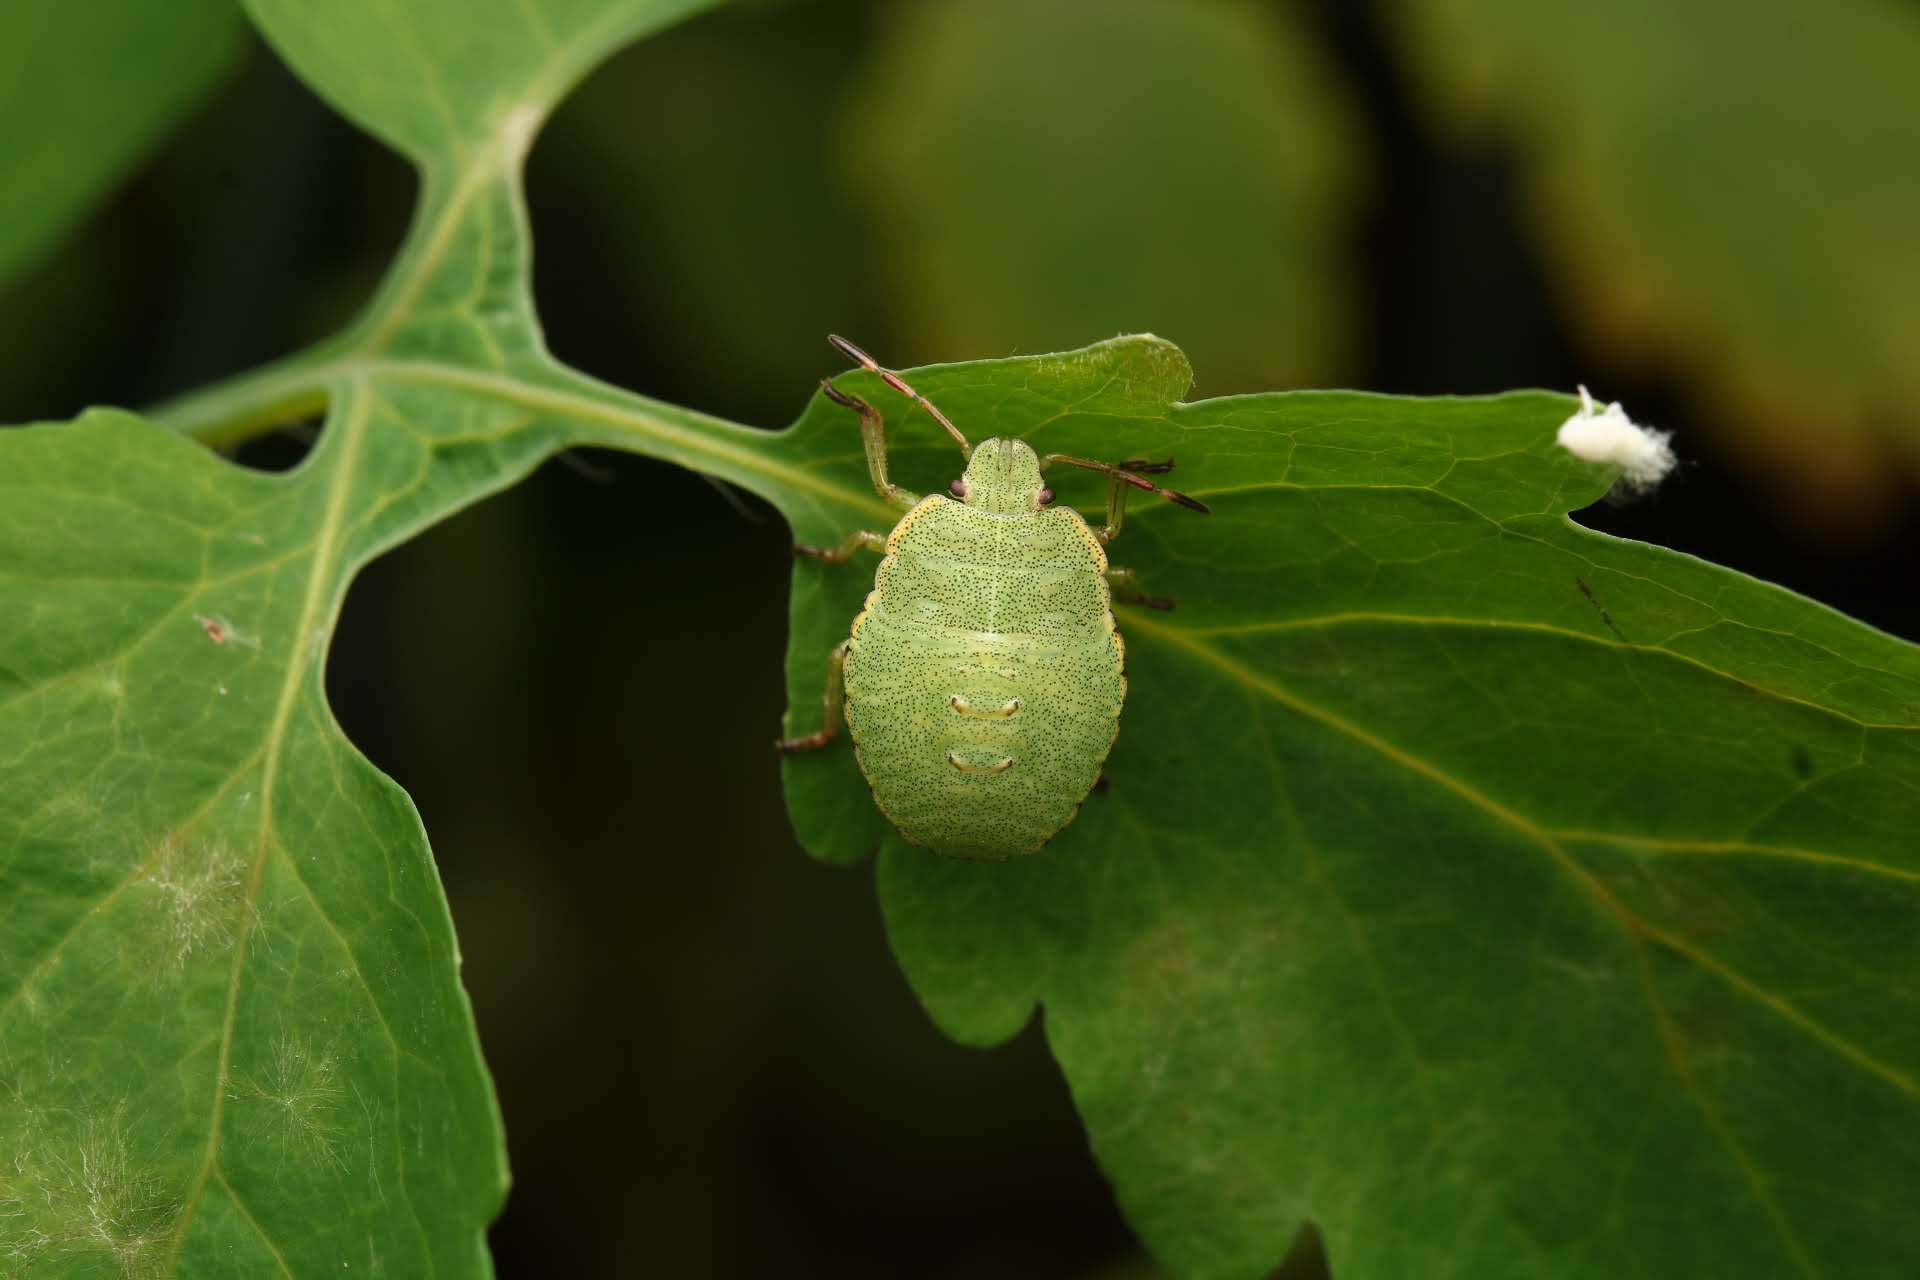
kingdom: Animalia
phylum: Arthropoda
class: Insecta
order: Hemiptera
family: Pentatomidae
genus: Palomena
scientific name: Palomena prasina
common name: Green shieldbug
